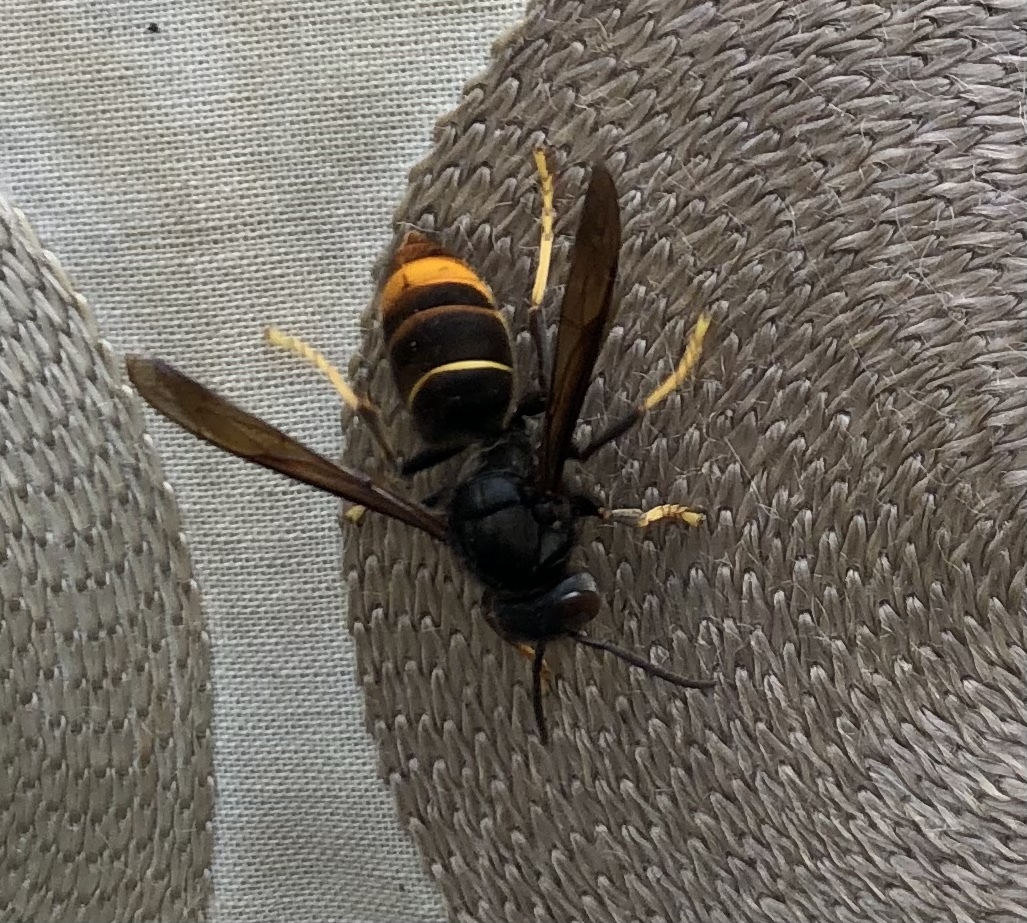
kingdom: Animalia
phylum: Arthropoda
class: Insecta
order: Hymenoptera
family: Vespidae
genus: Vespa
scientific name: Vespa velutina
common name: Asian hornet
